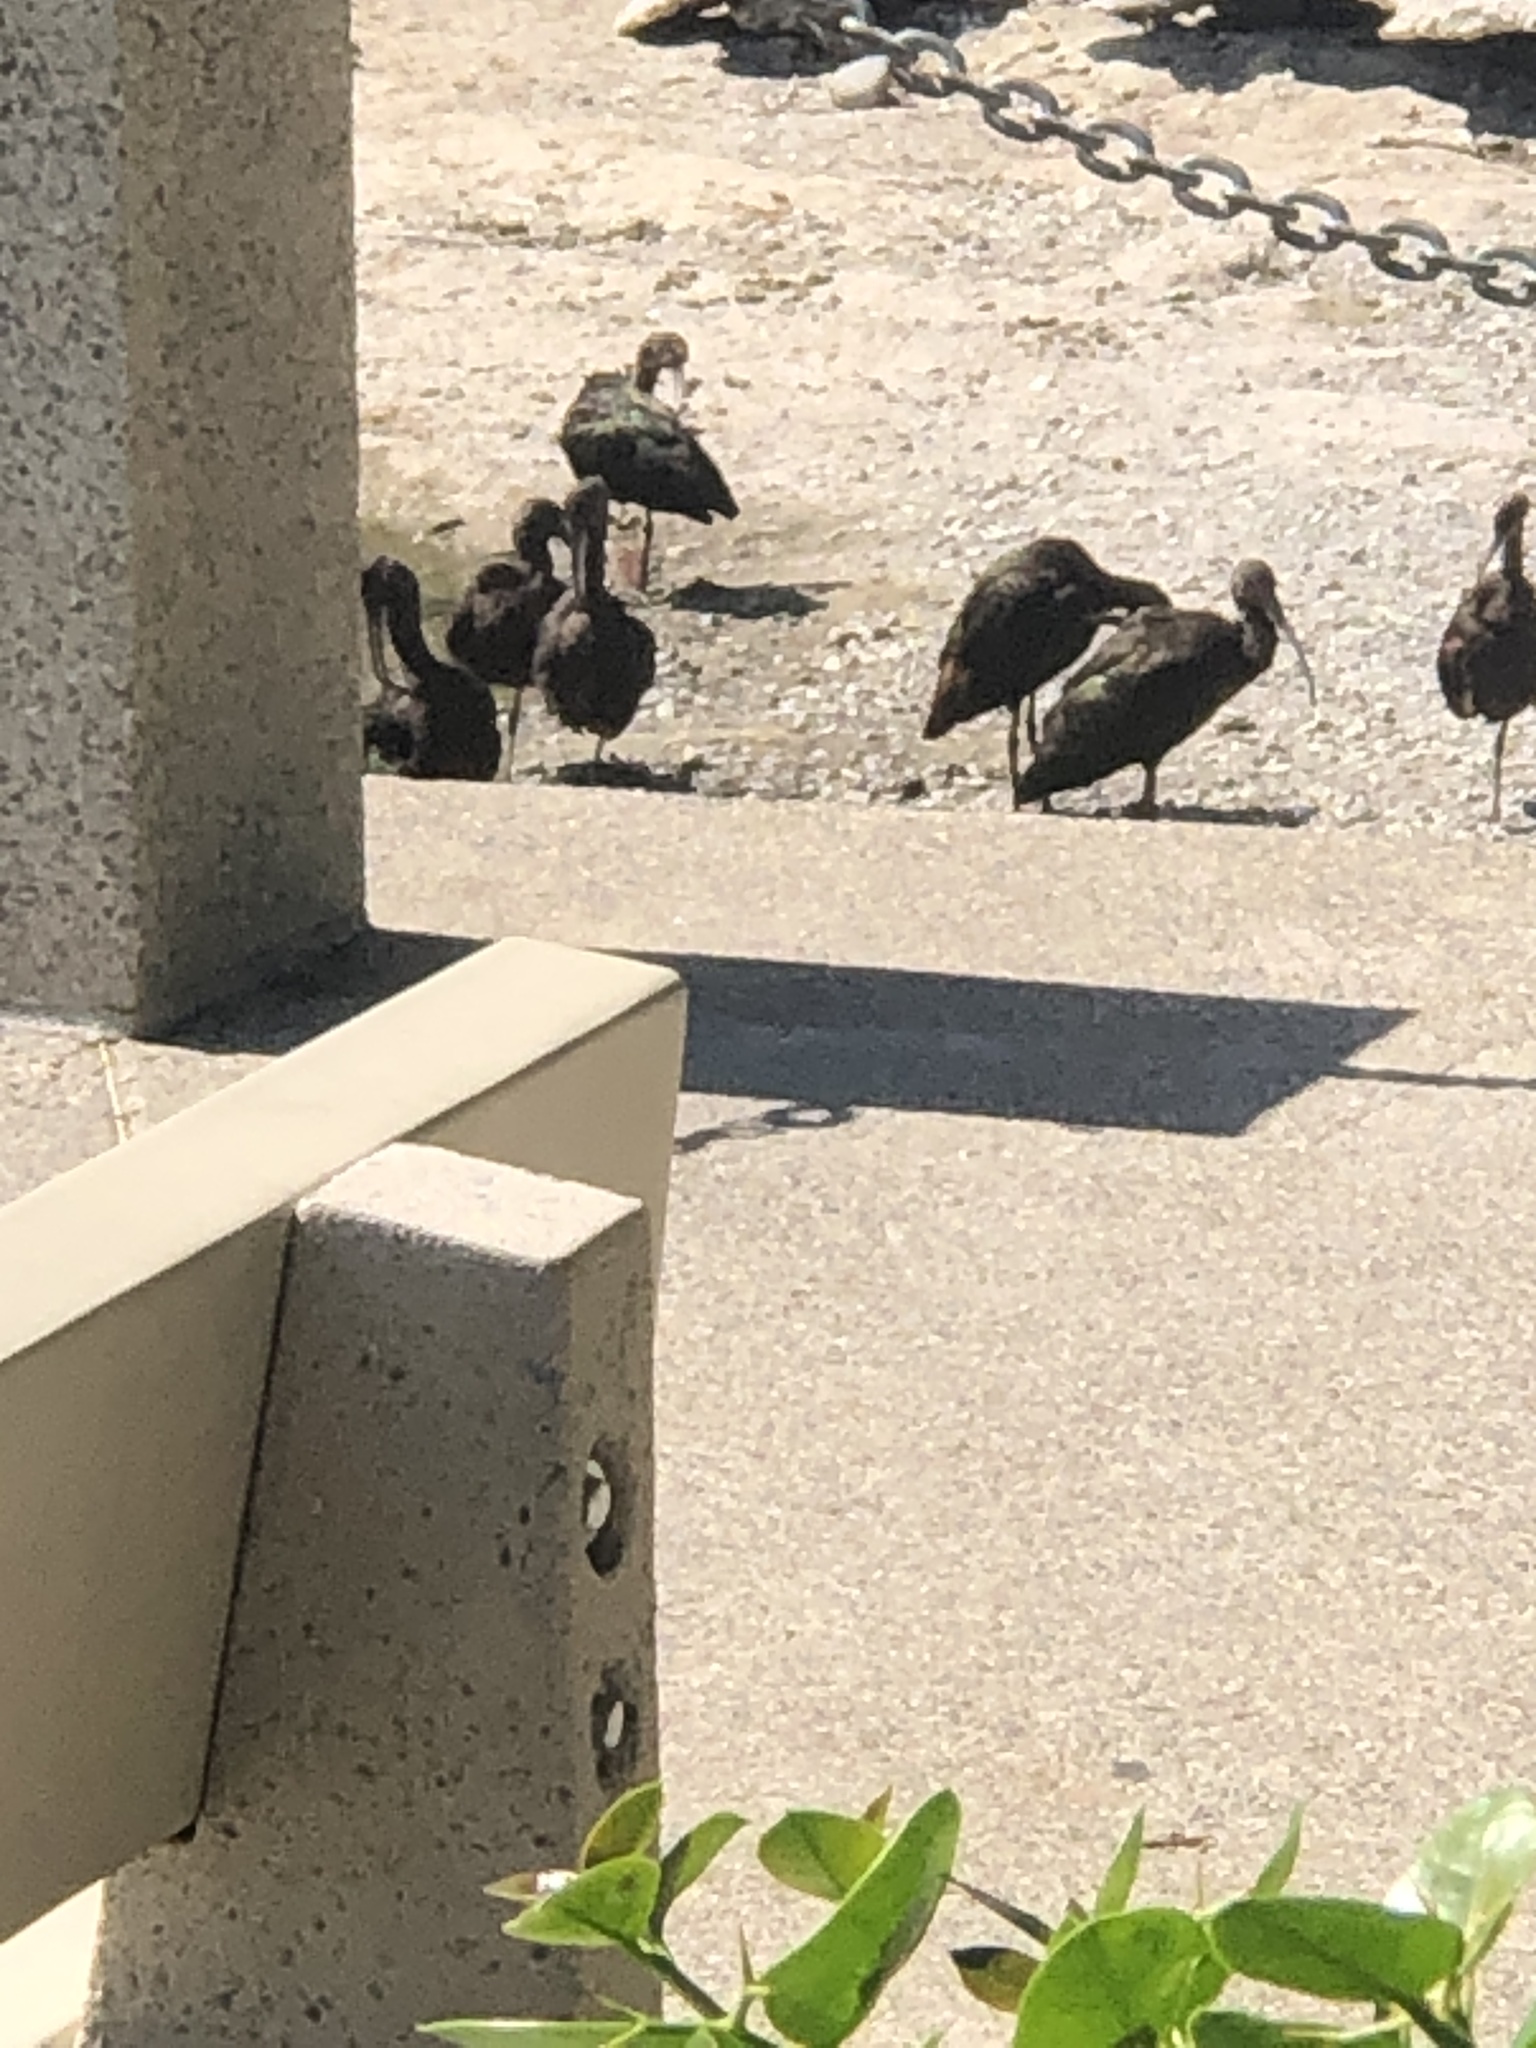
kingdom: Animalia
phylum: Chordata
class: Aves
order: Pelecaniformes
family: Threskiornithidae
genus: Plegadis
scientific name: Plegadis chihi
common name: White-faced ibis
